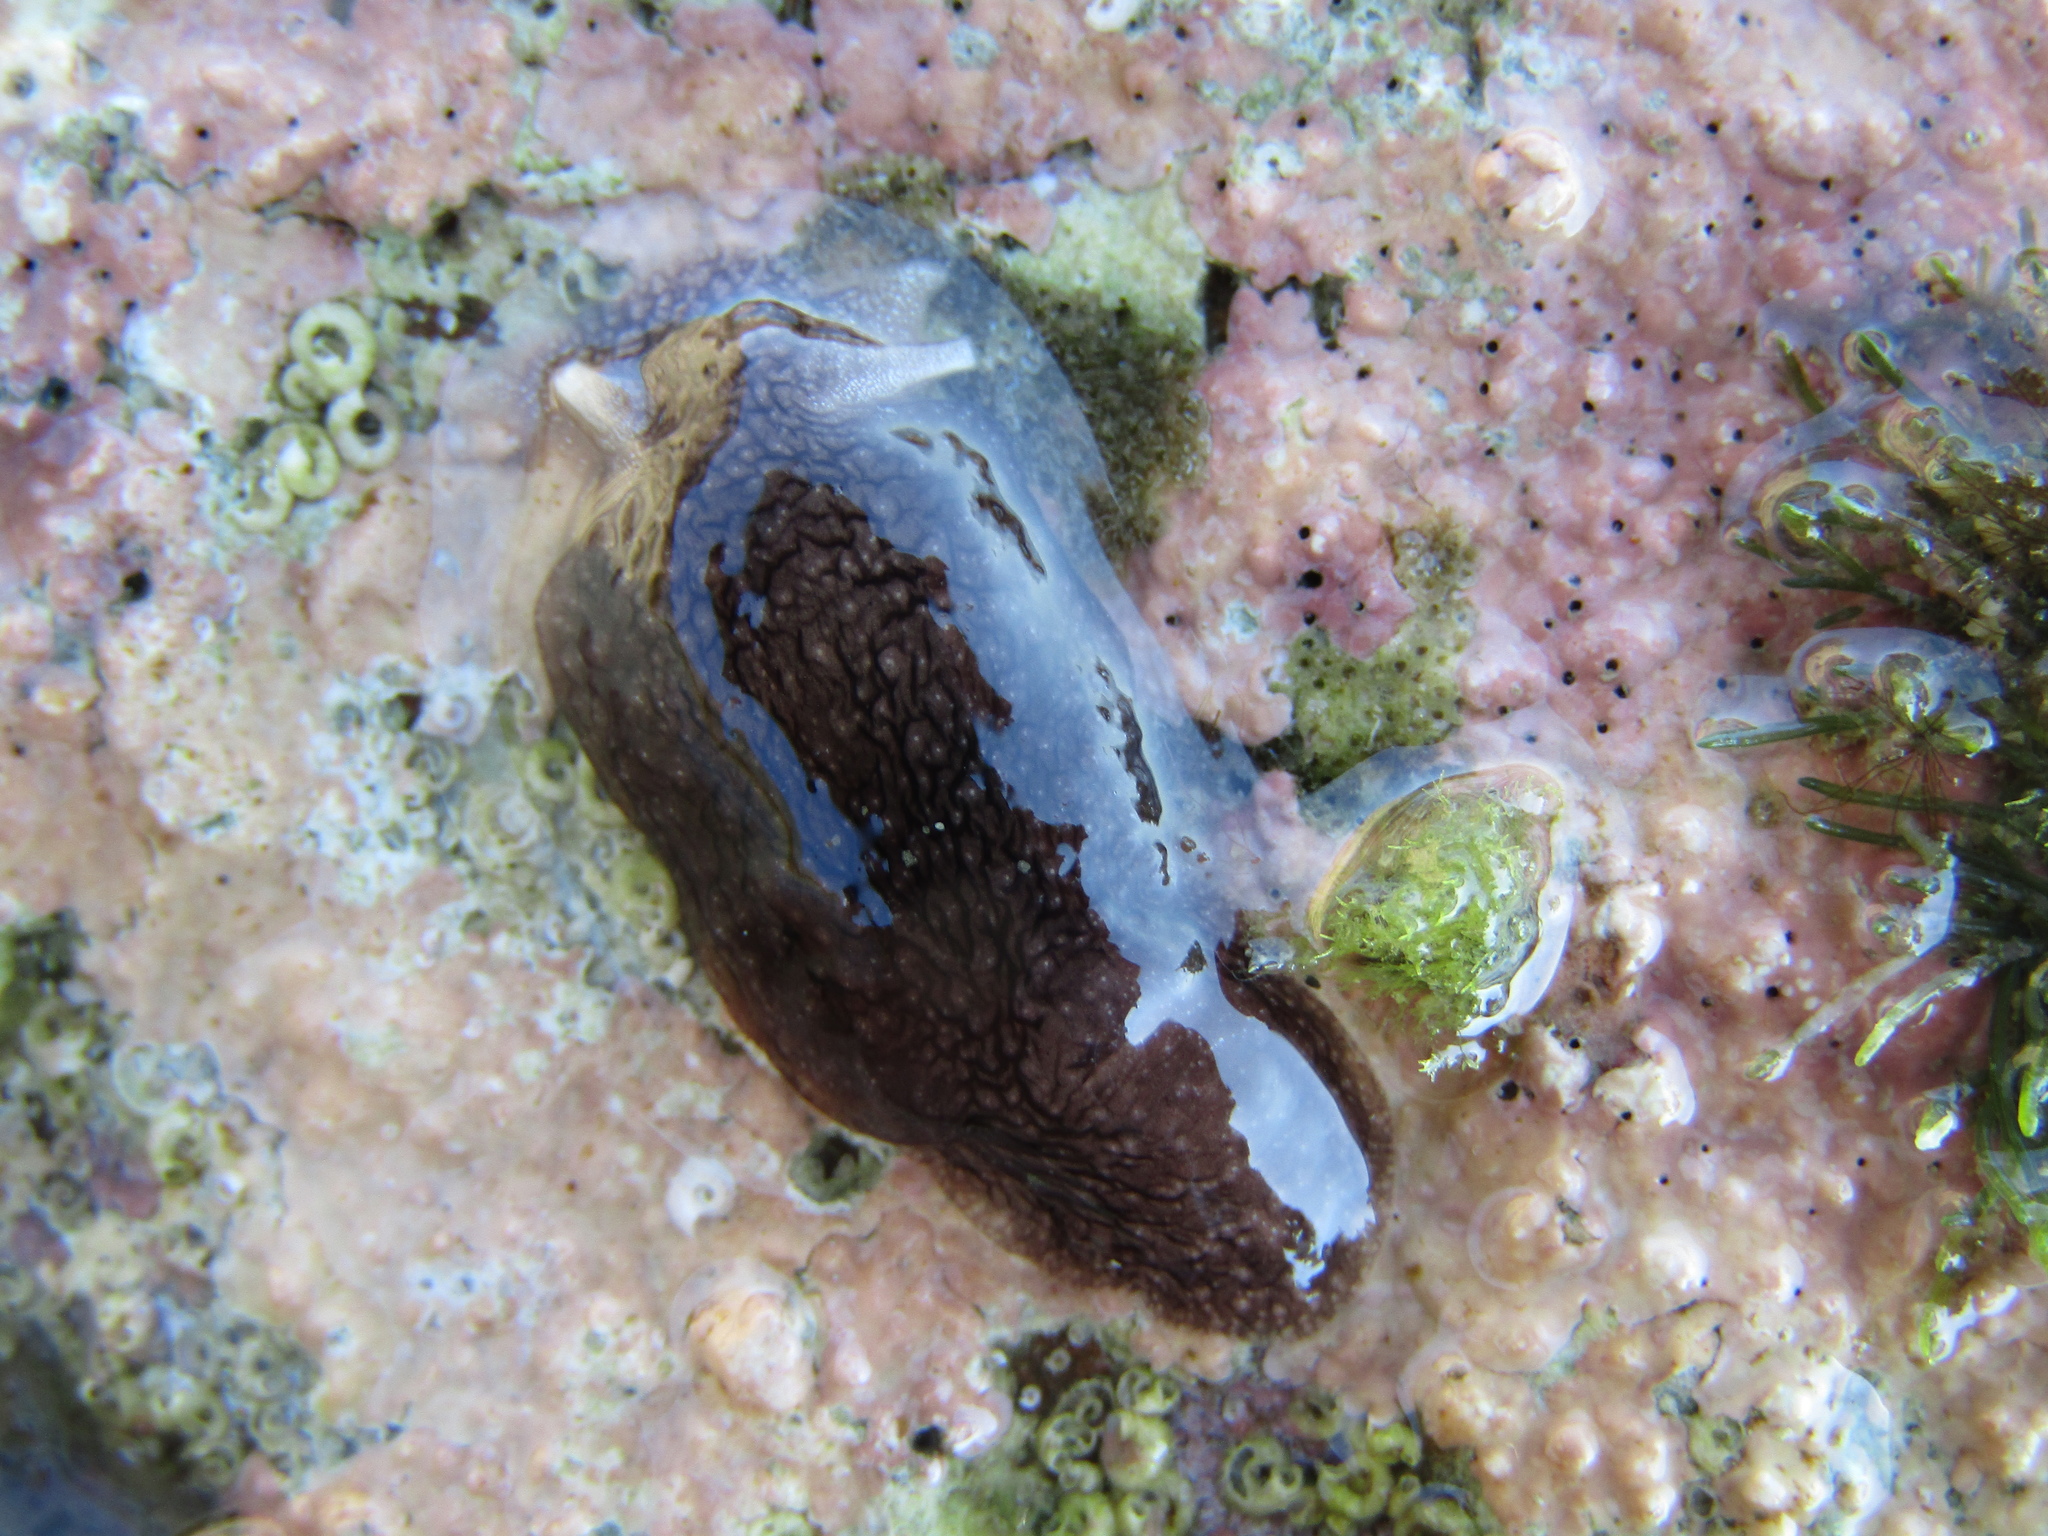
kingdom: Animalia
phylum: Mollusca
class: Gastropoda
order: Pleurobranchida
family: Pleurobranchaeidae
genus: Pleurobranchaea
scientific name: Pleurobranchaea maculata
